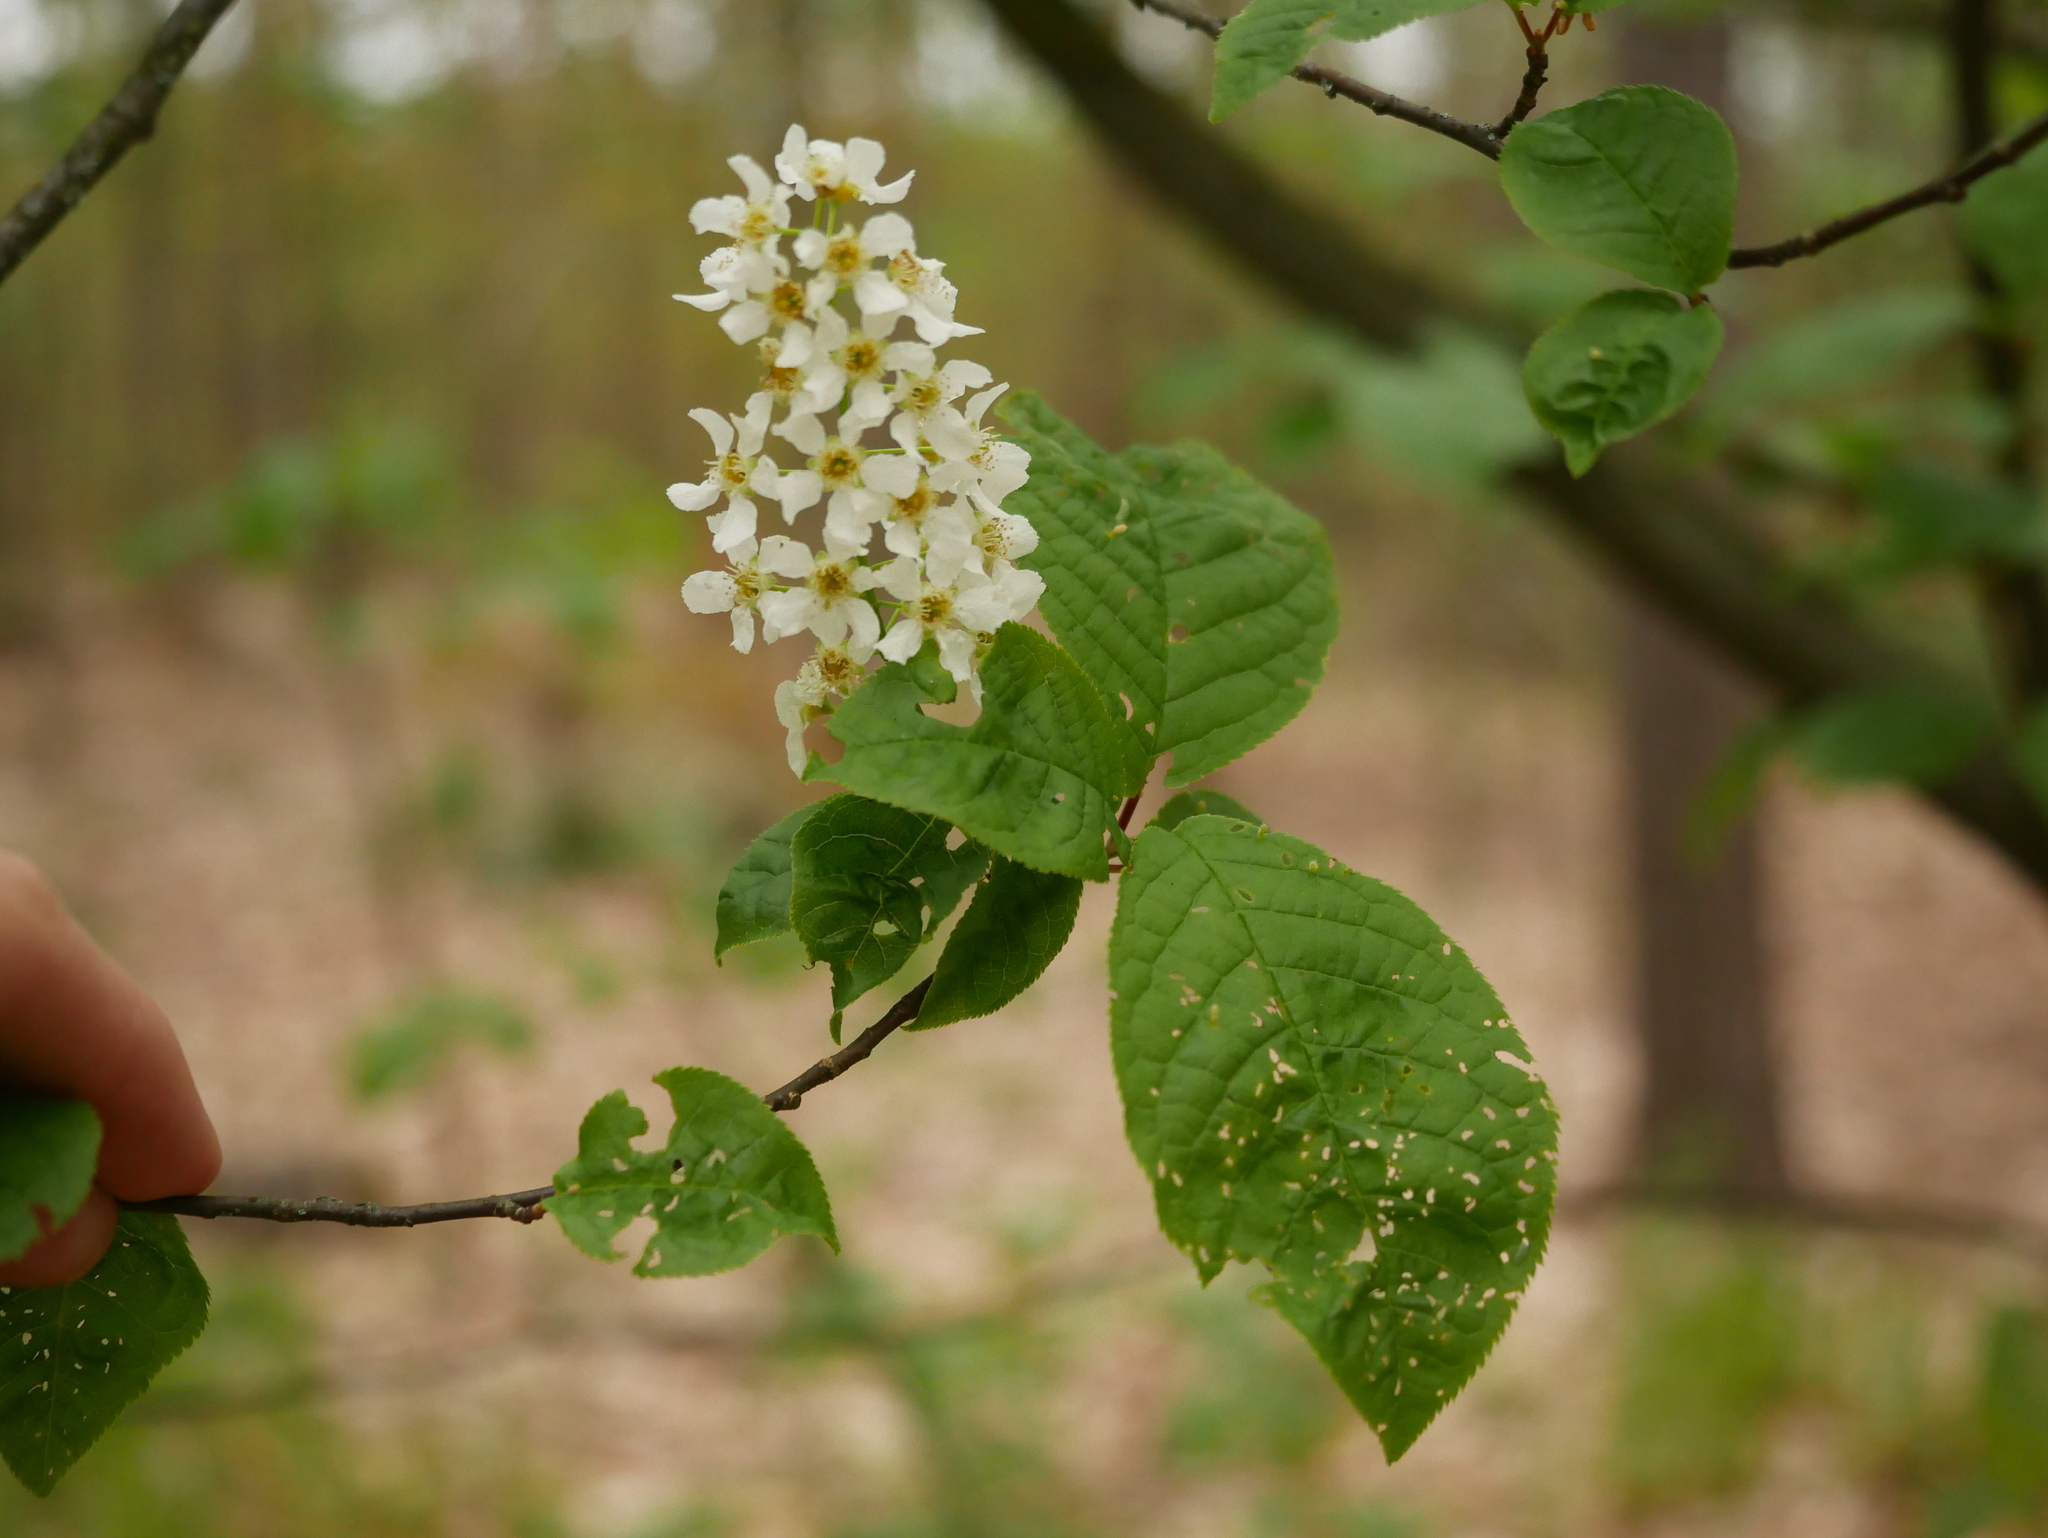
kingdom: Plantae
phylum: Tracheophyta
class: Magnoliopsida
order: Rosales
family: Rosaceae
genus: Prunus
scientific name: Prunus padus
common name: Bird cherry
